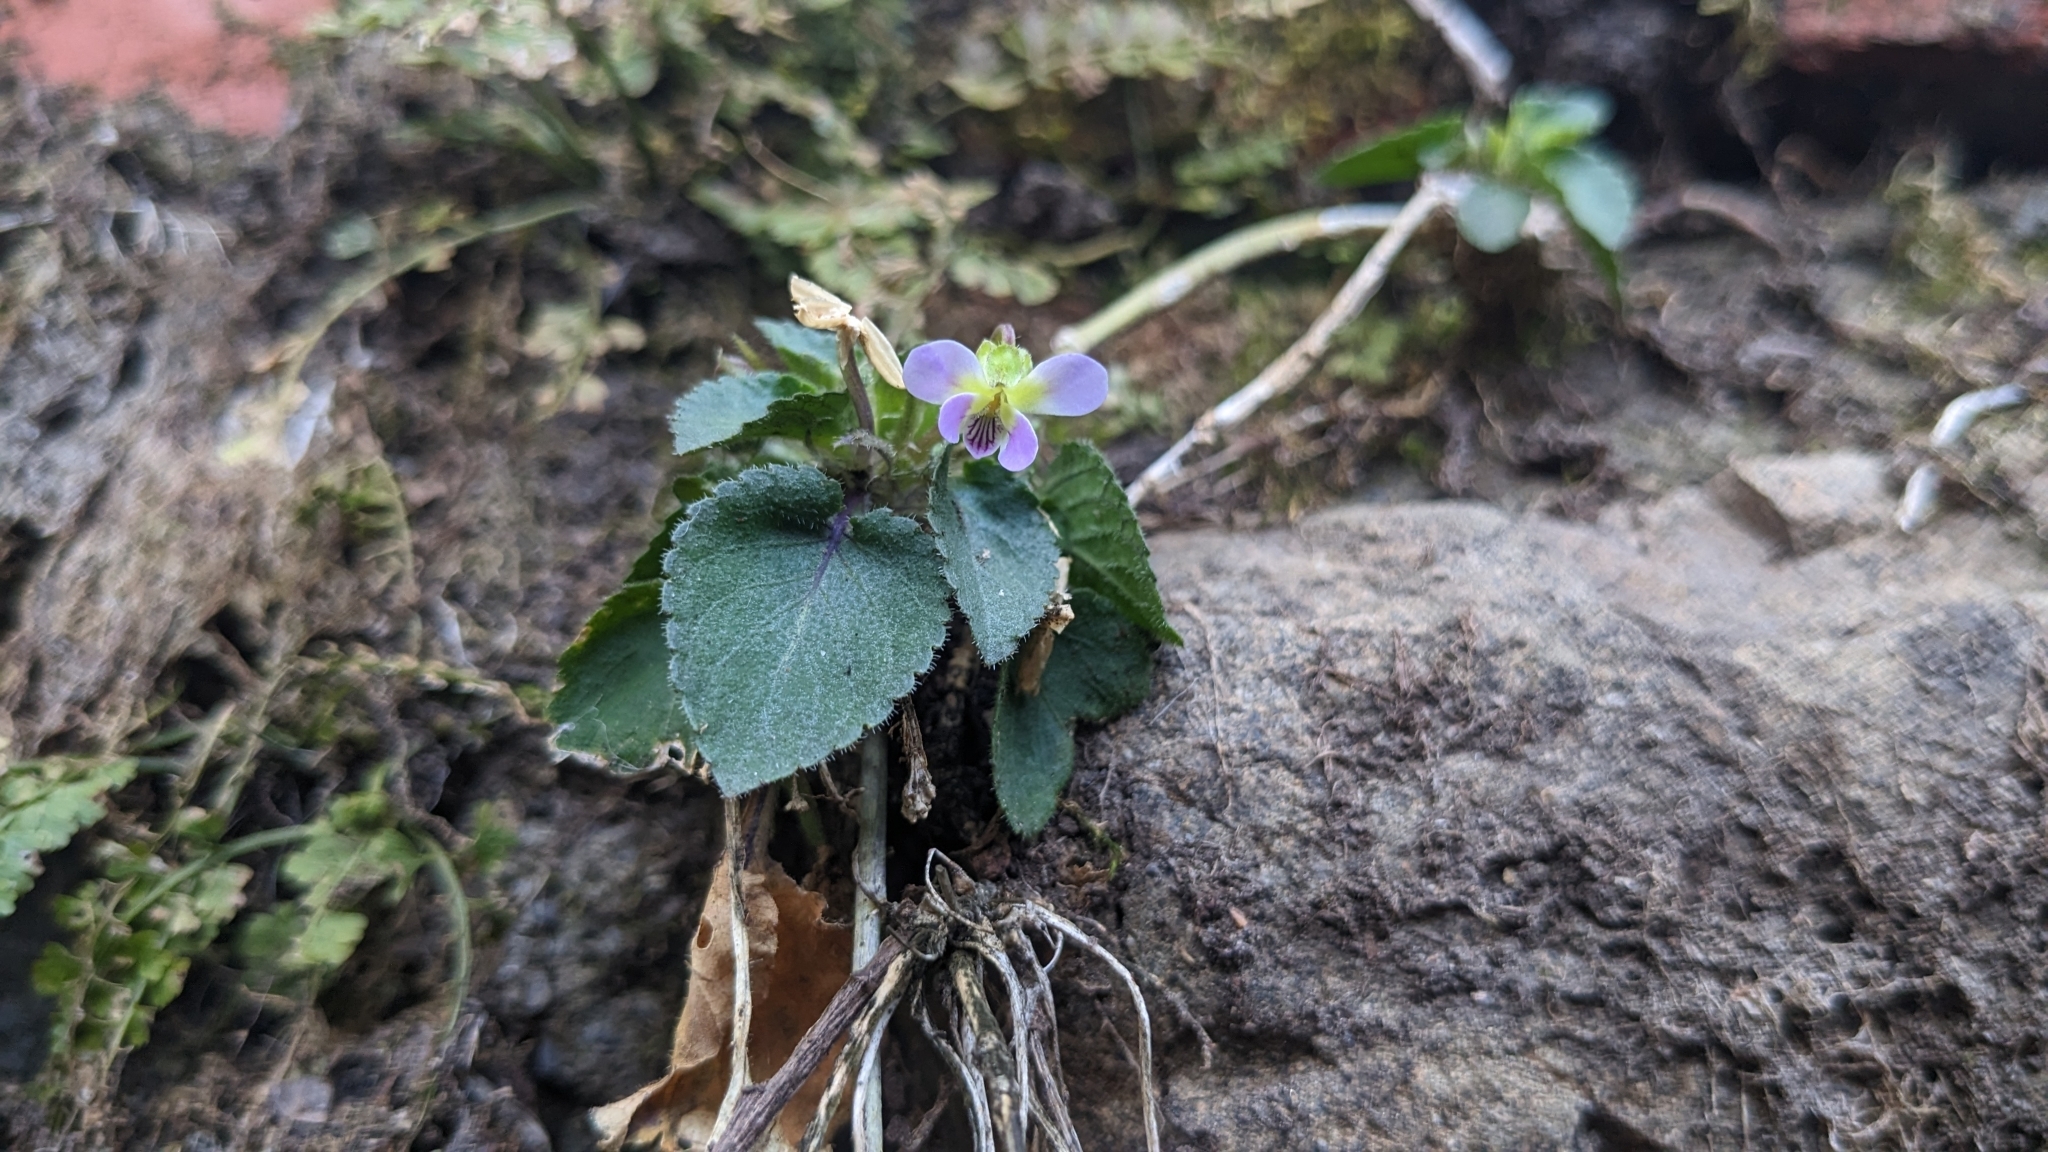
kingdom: Plantae
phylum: Tracheophyta
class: Magnoliopsida
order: Malpighiales
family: Violaceae
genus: Viola
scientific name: Viola diffusa
